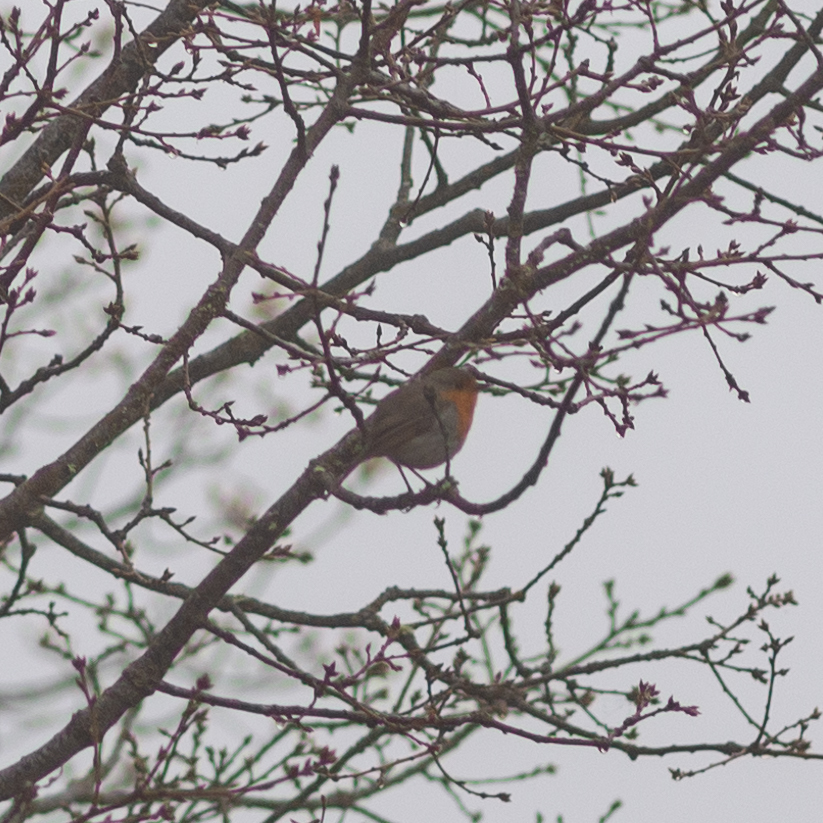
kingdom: Animalia
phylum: Chordata
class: Aves
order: Passeriformes
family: Muscicapidae
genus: Erithacus
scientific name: Erithacus rubecula
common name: European robin
